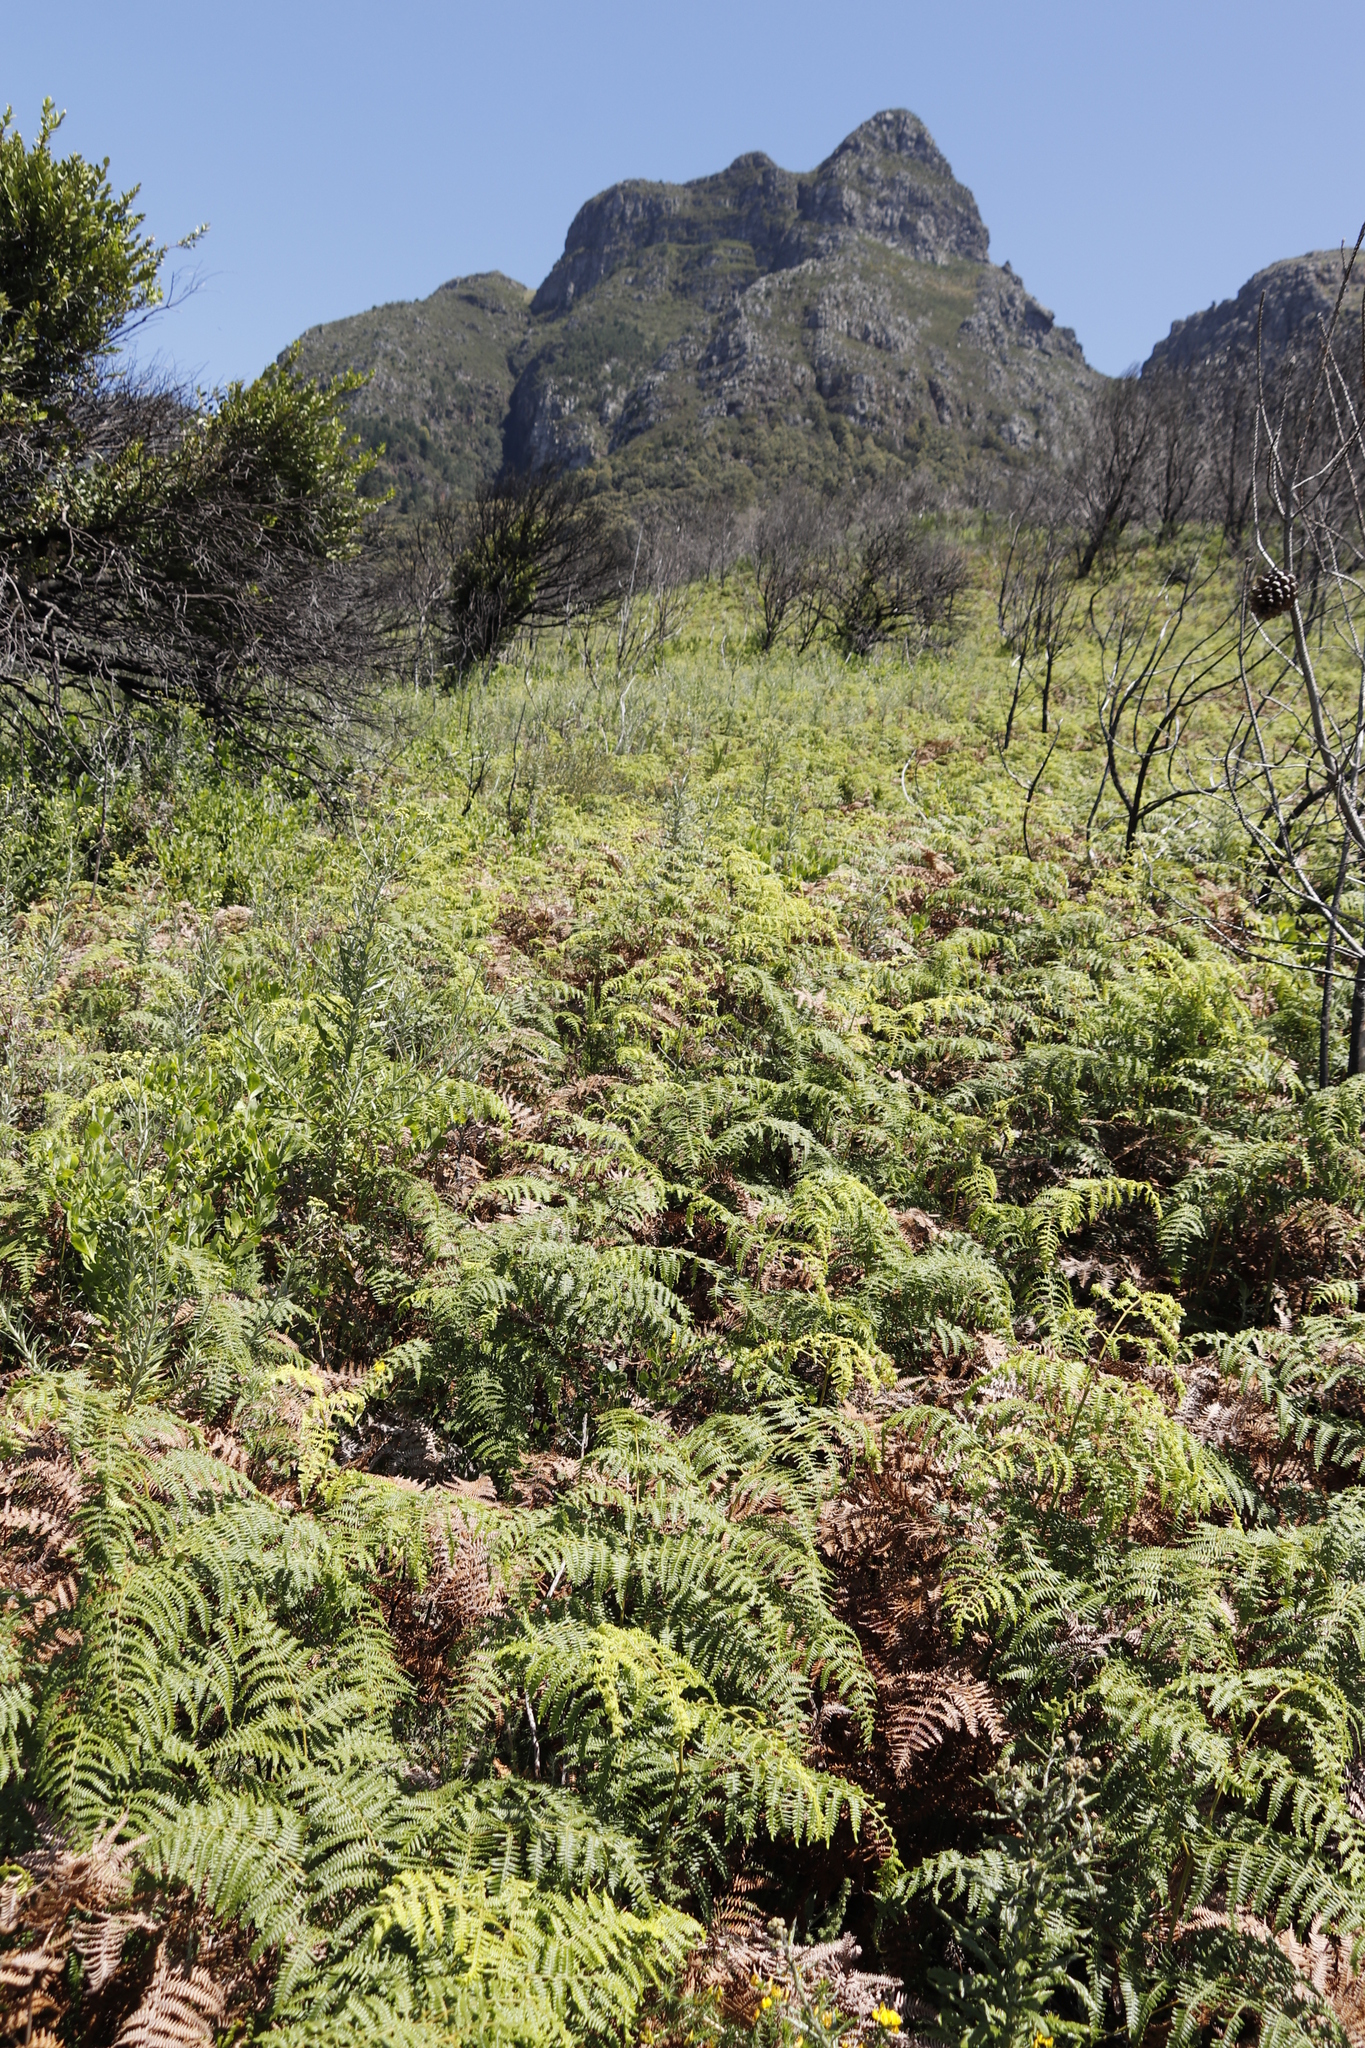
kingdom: Plantae
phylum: Tracheophyta
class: Polypodiopsida
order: Polypodiales
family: Dennstaedtiaceae
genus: Pteridium
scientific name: Pteridium aquilinum
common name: Bracken
